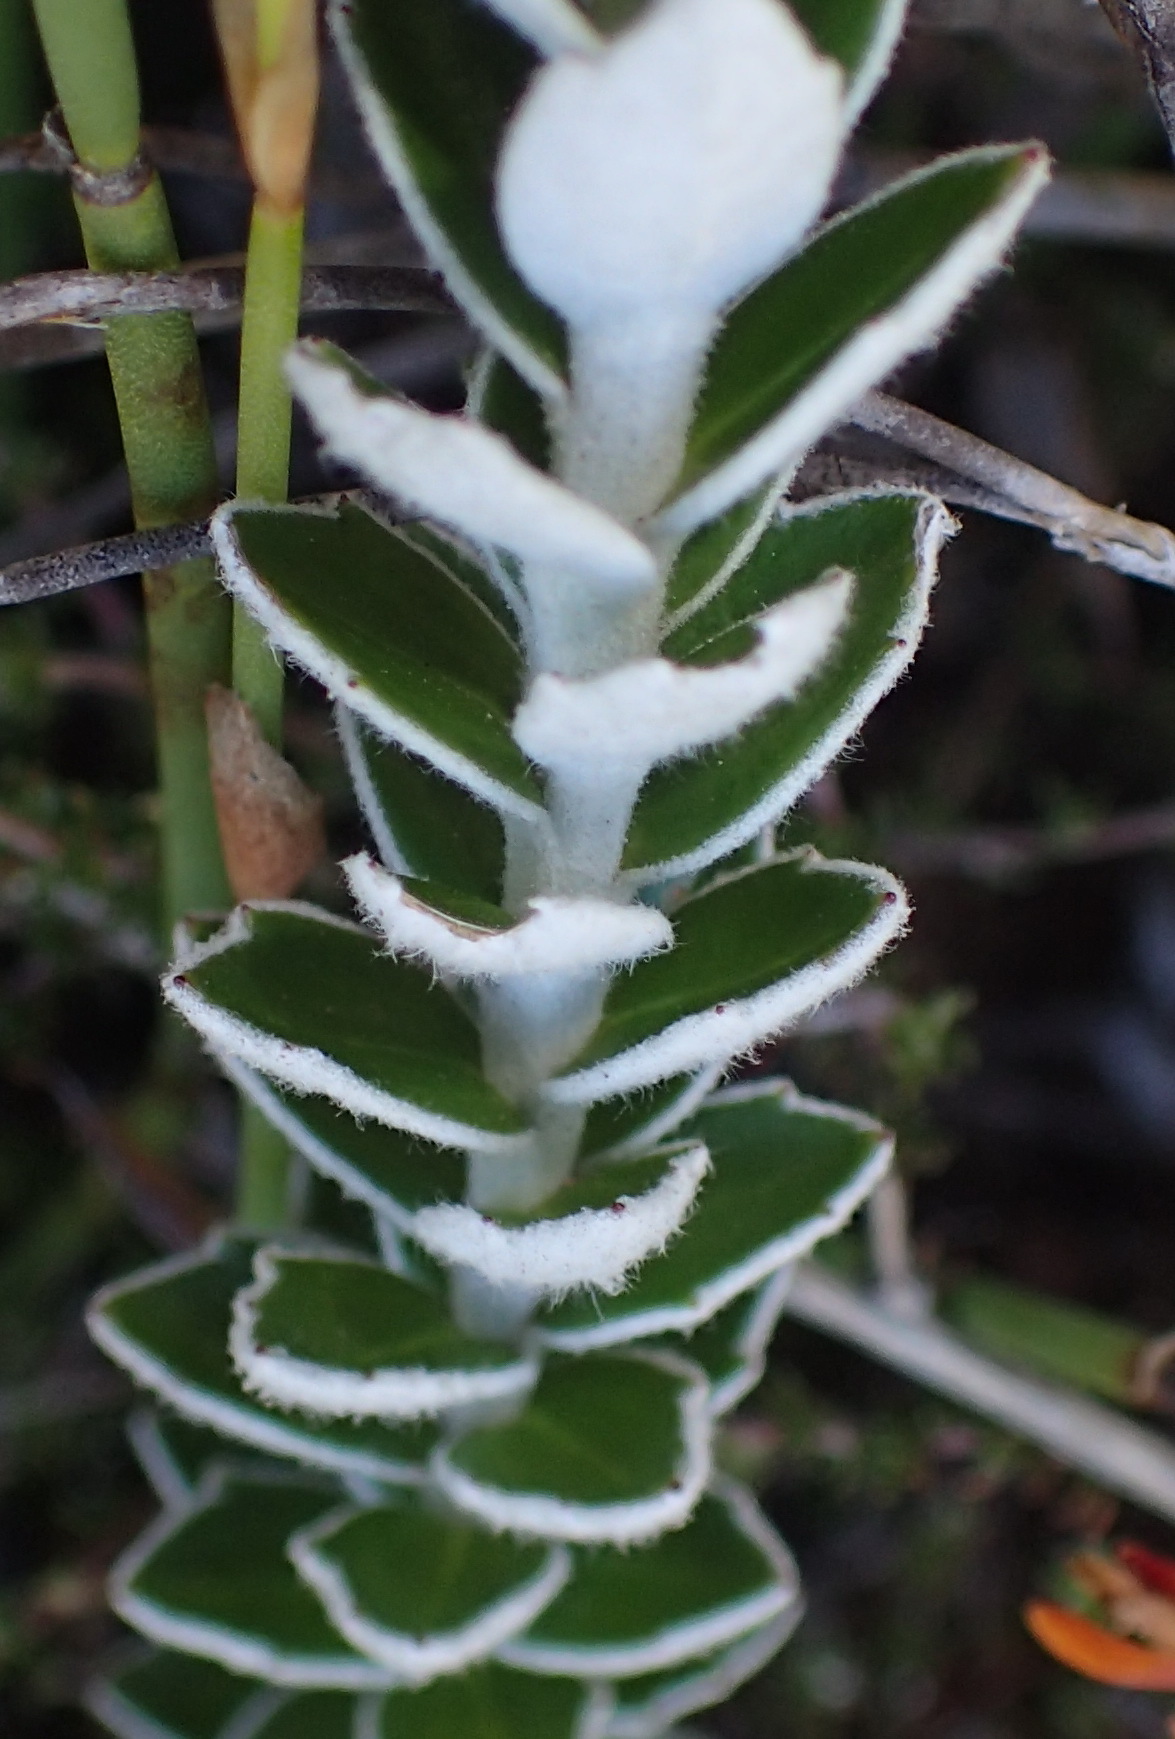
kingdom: Plantae
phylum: Tracheophyta
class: Magnoliopsida
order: Asterales
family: Asteraceae
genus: Senecio
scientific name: Senecio pauciflosculosus
